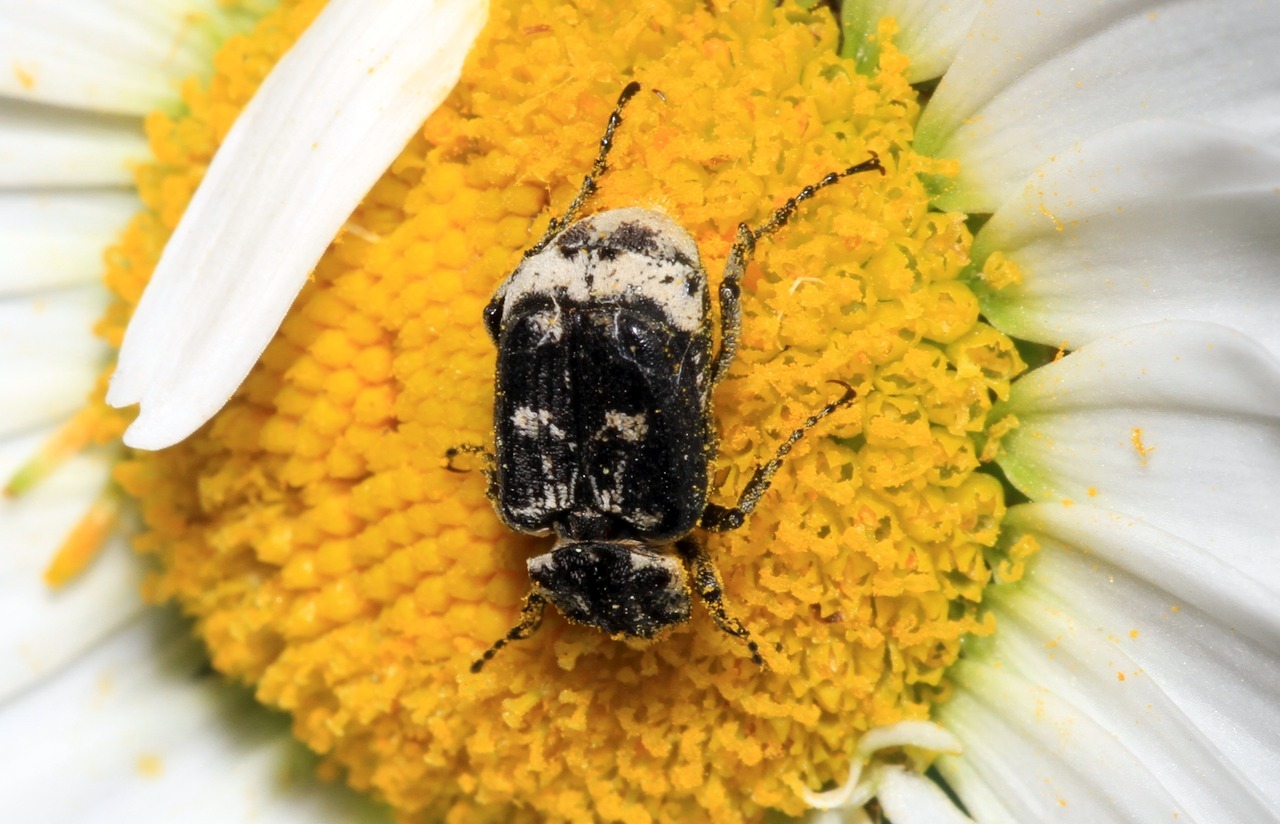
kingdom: Animalia
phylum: Arthropoda
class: Insecta
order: Coleoptera
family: Scarabaeidae
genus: Valgus
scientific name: Valgus hemipterus
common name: Bug flower chafer
